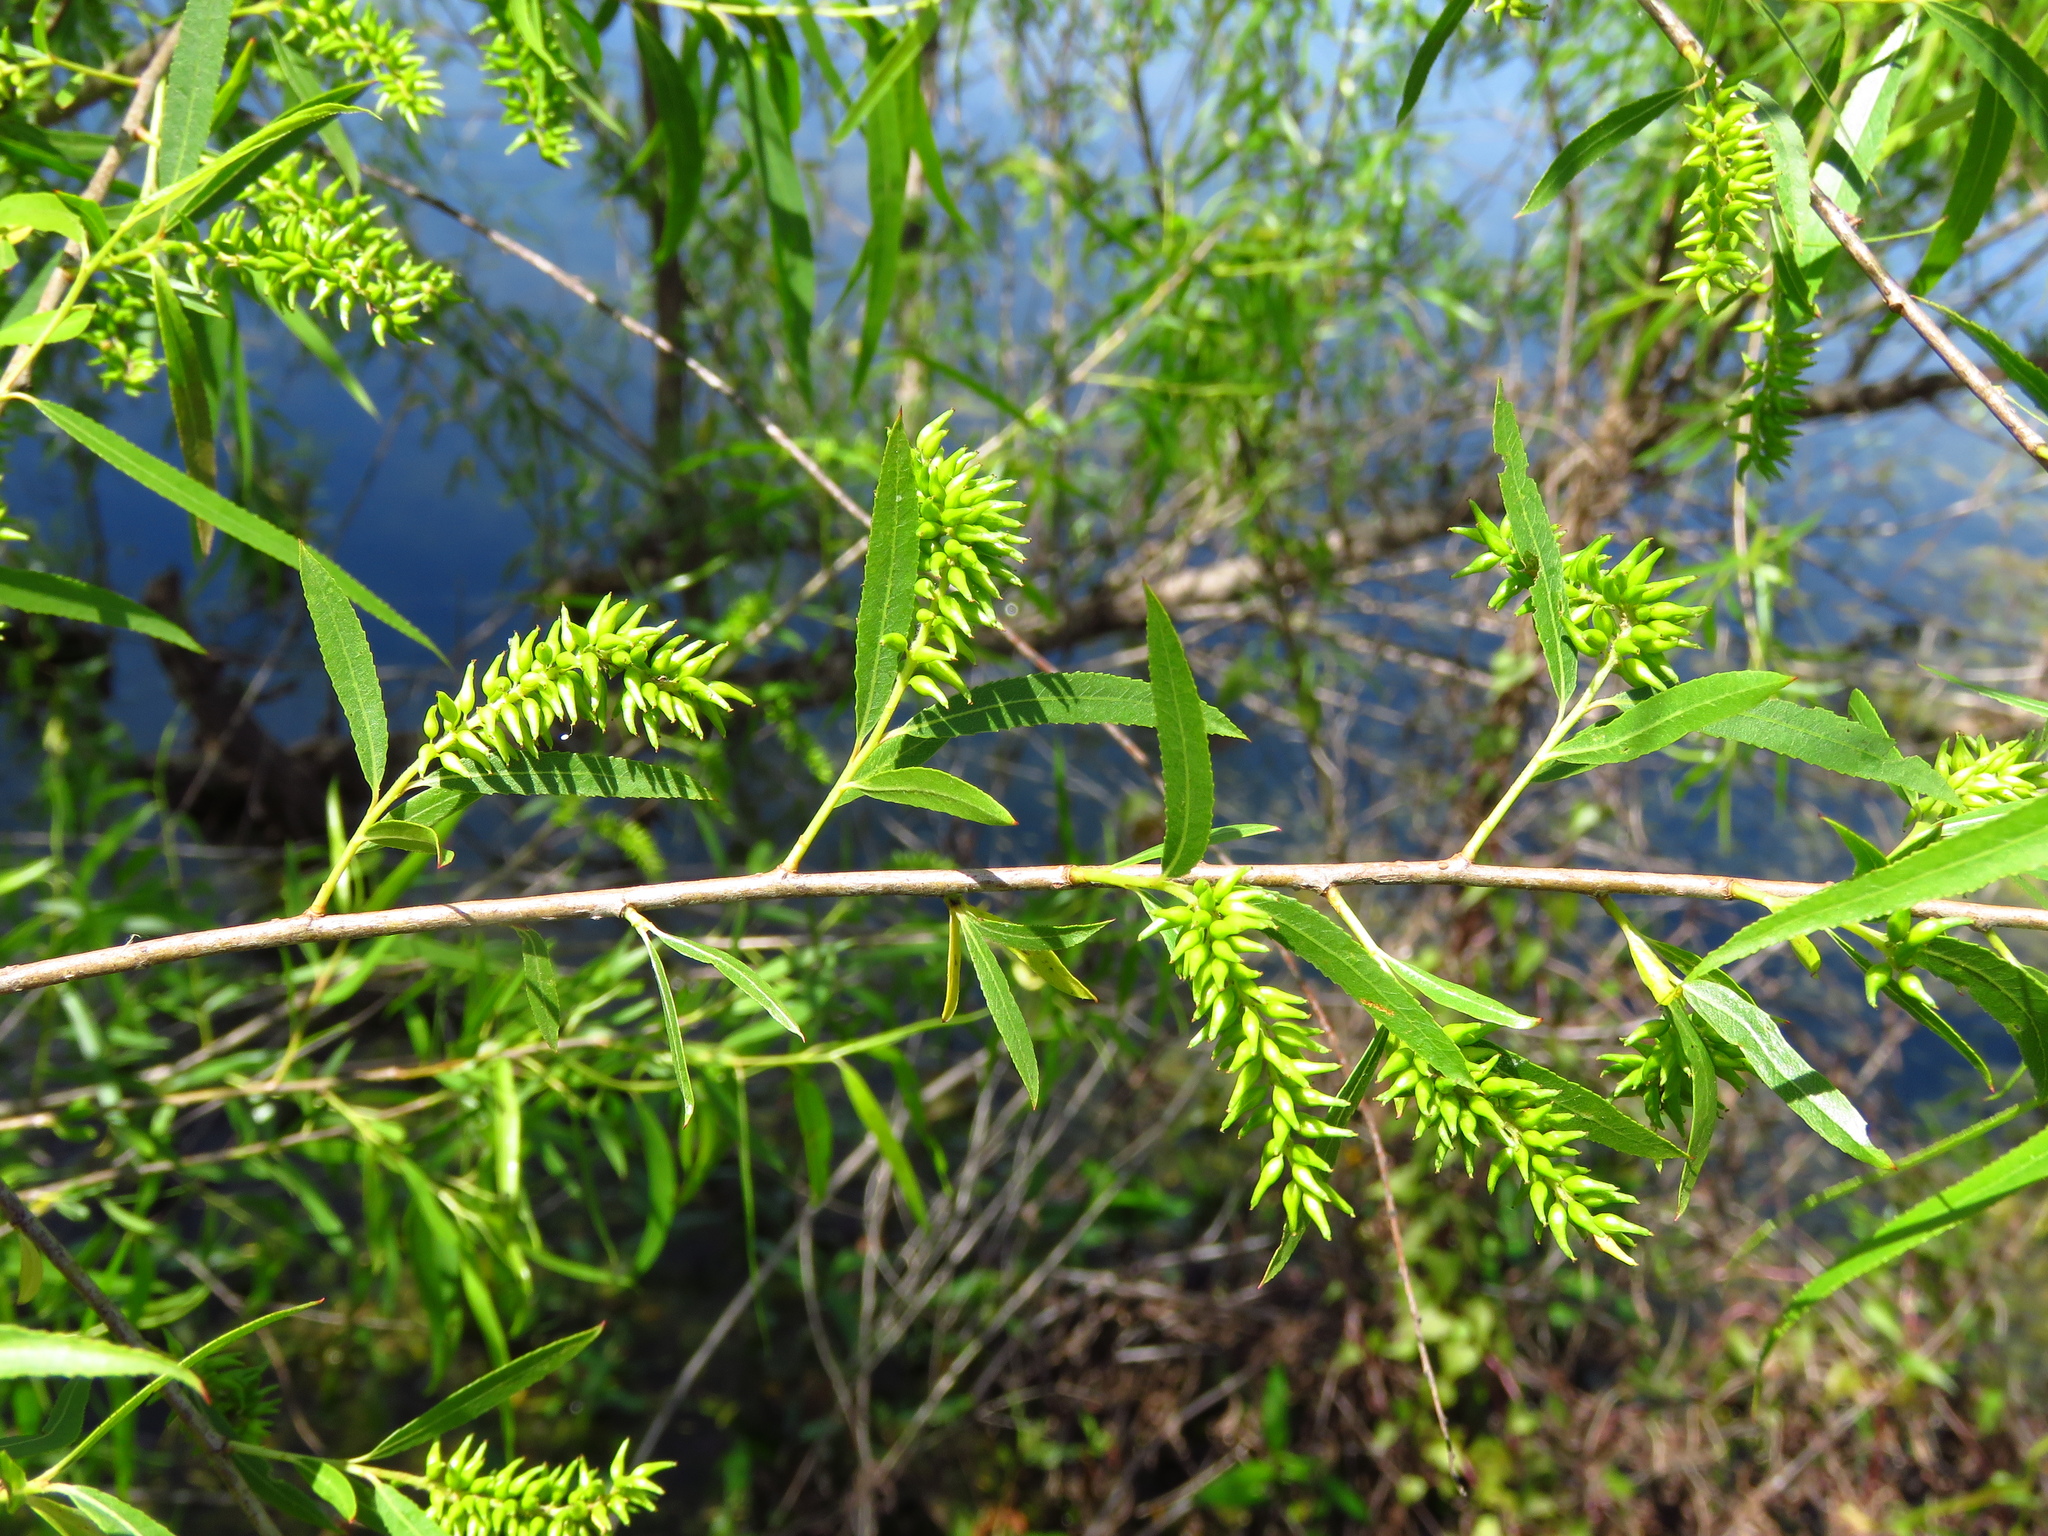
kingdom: Plantae
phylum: Tracheophyta
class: Magnoliopsida
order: Malpighiales
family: Salicaceae
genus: Salix
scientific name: Salix nigra
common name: Black willow
